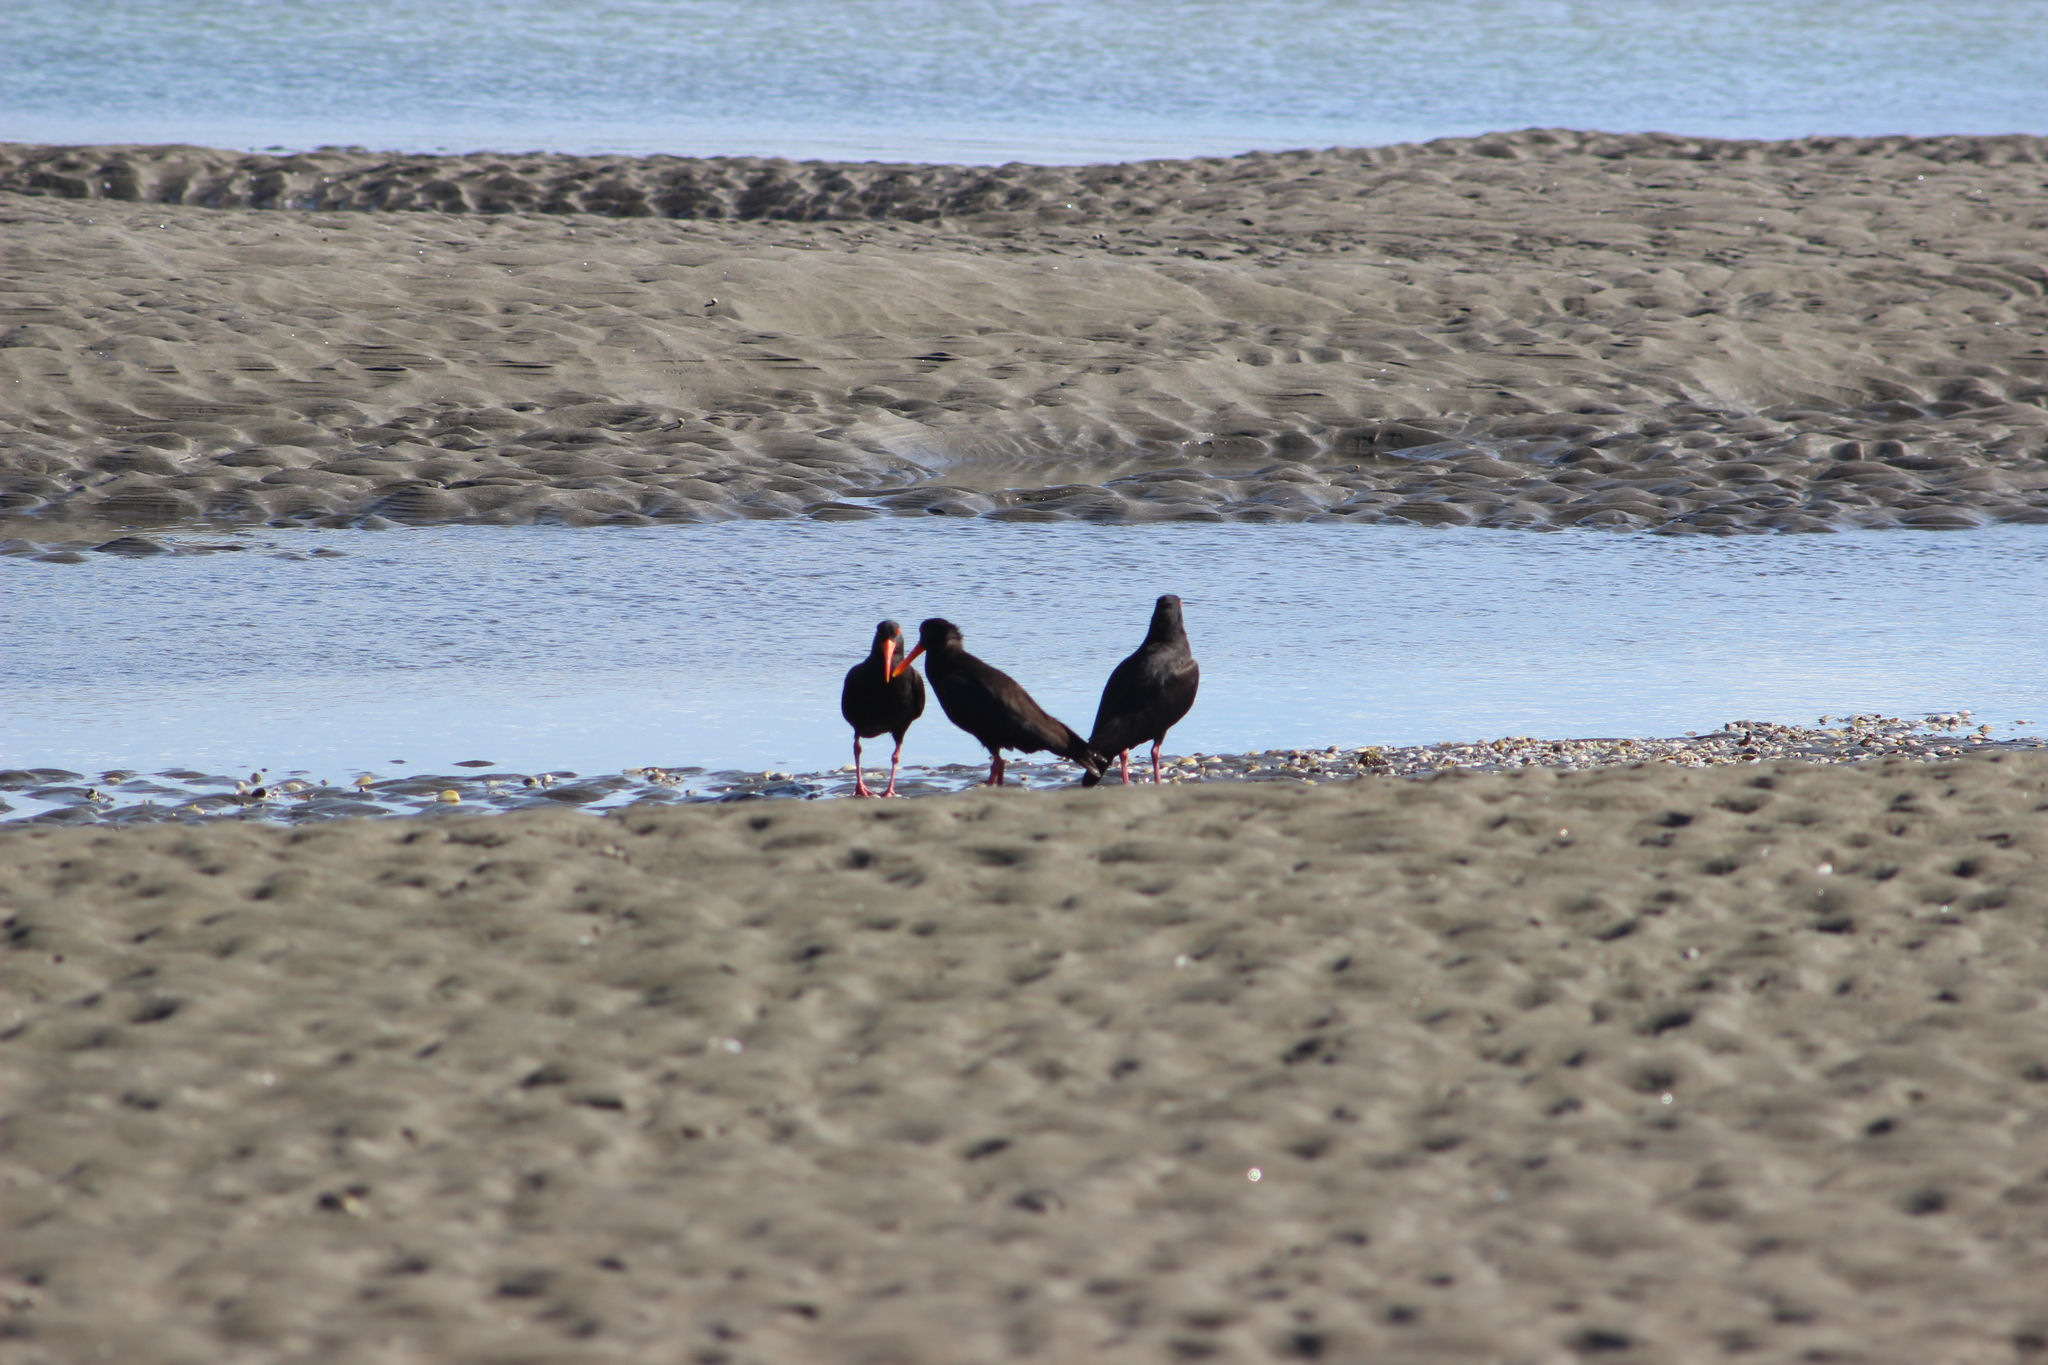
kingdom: Animalia
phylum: Chordata
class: Aves
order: Charadriiformes
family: Haematopodidae
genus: Haematopus
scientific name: Haematopus unicolor
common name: Variable oystercatcher
